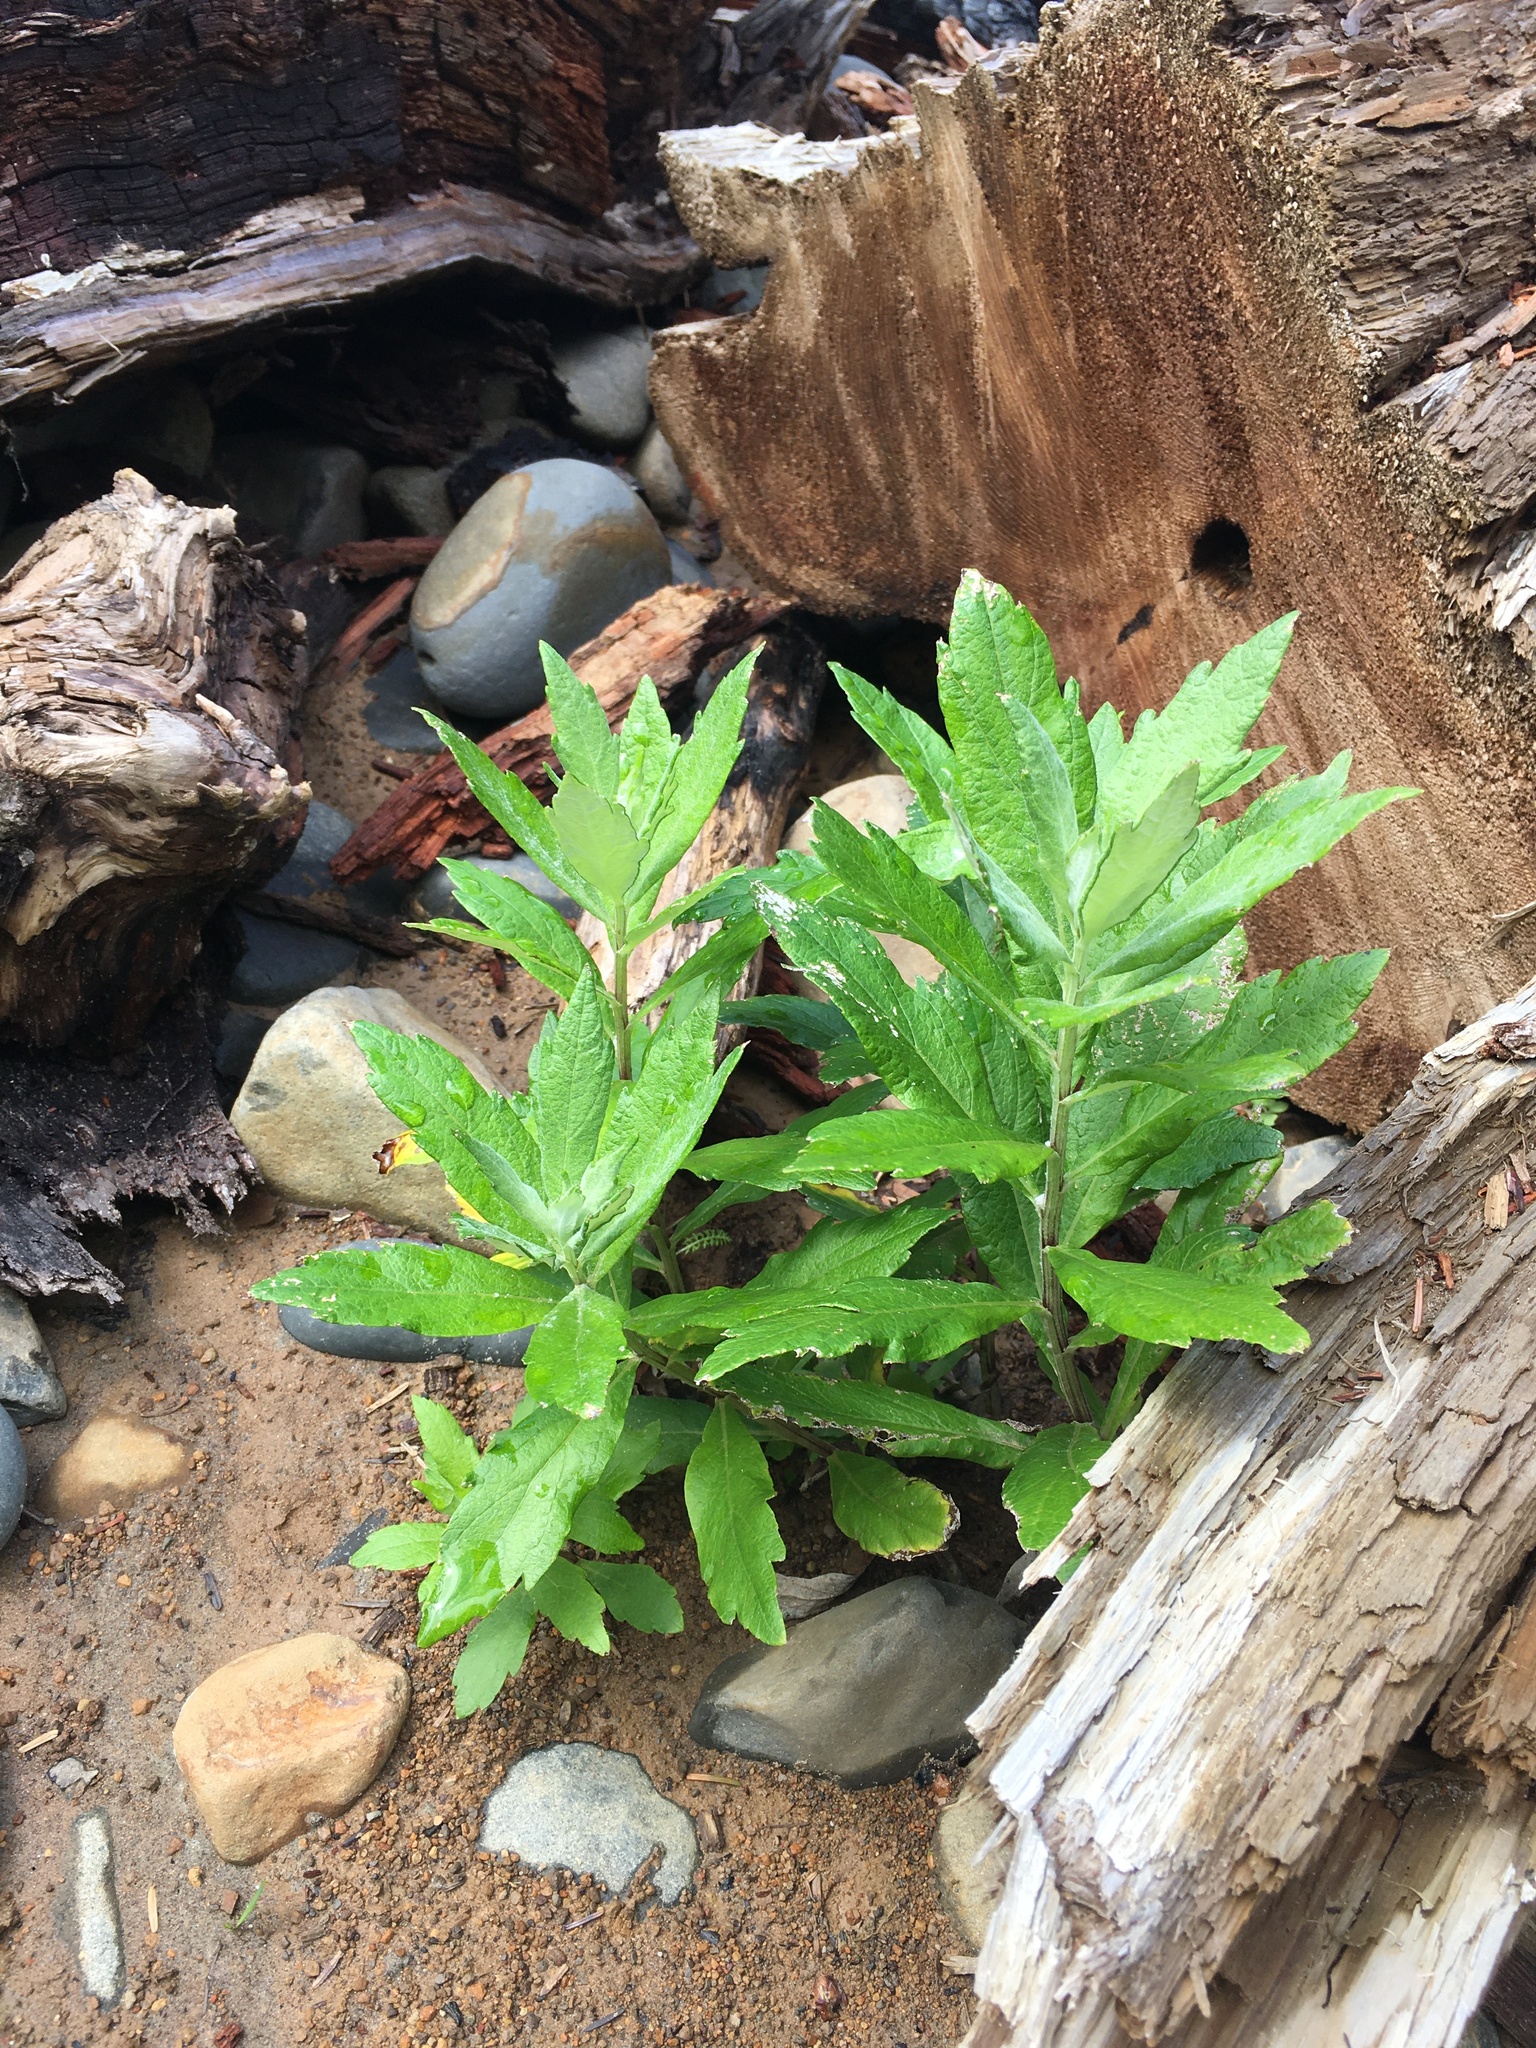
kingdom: Plantae
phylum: Tracheophyta
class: Magnoliopsida
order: Asterales
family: Asteraceae
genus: Artemisia
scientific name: Artemisia suksdorfii
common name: Suksdorf sagewort
